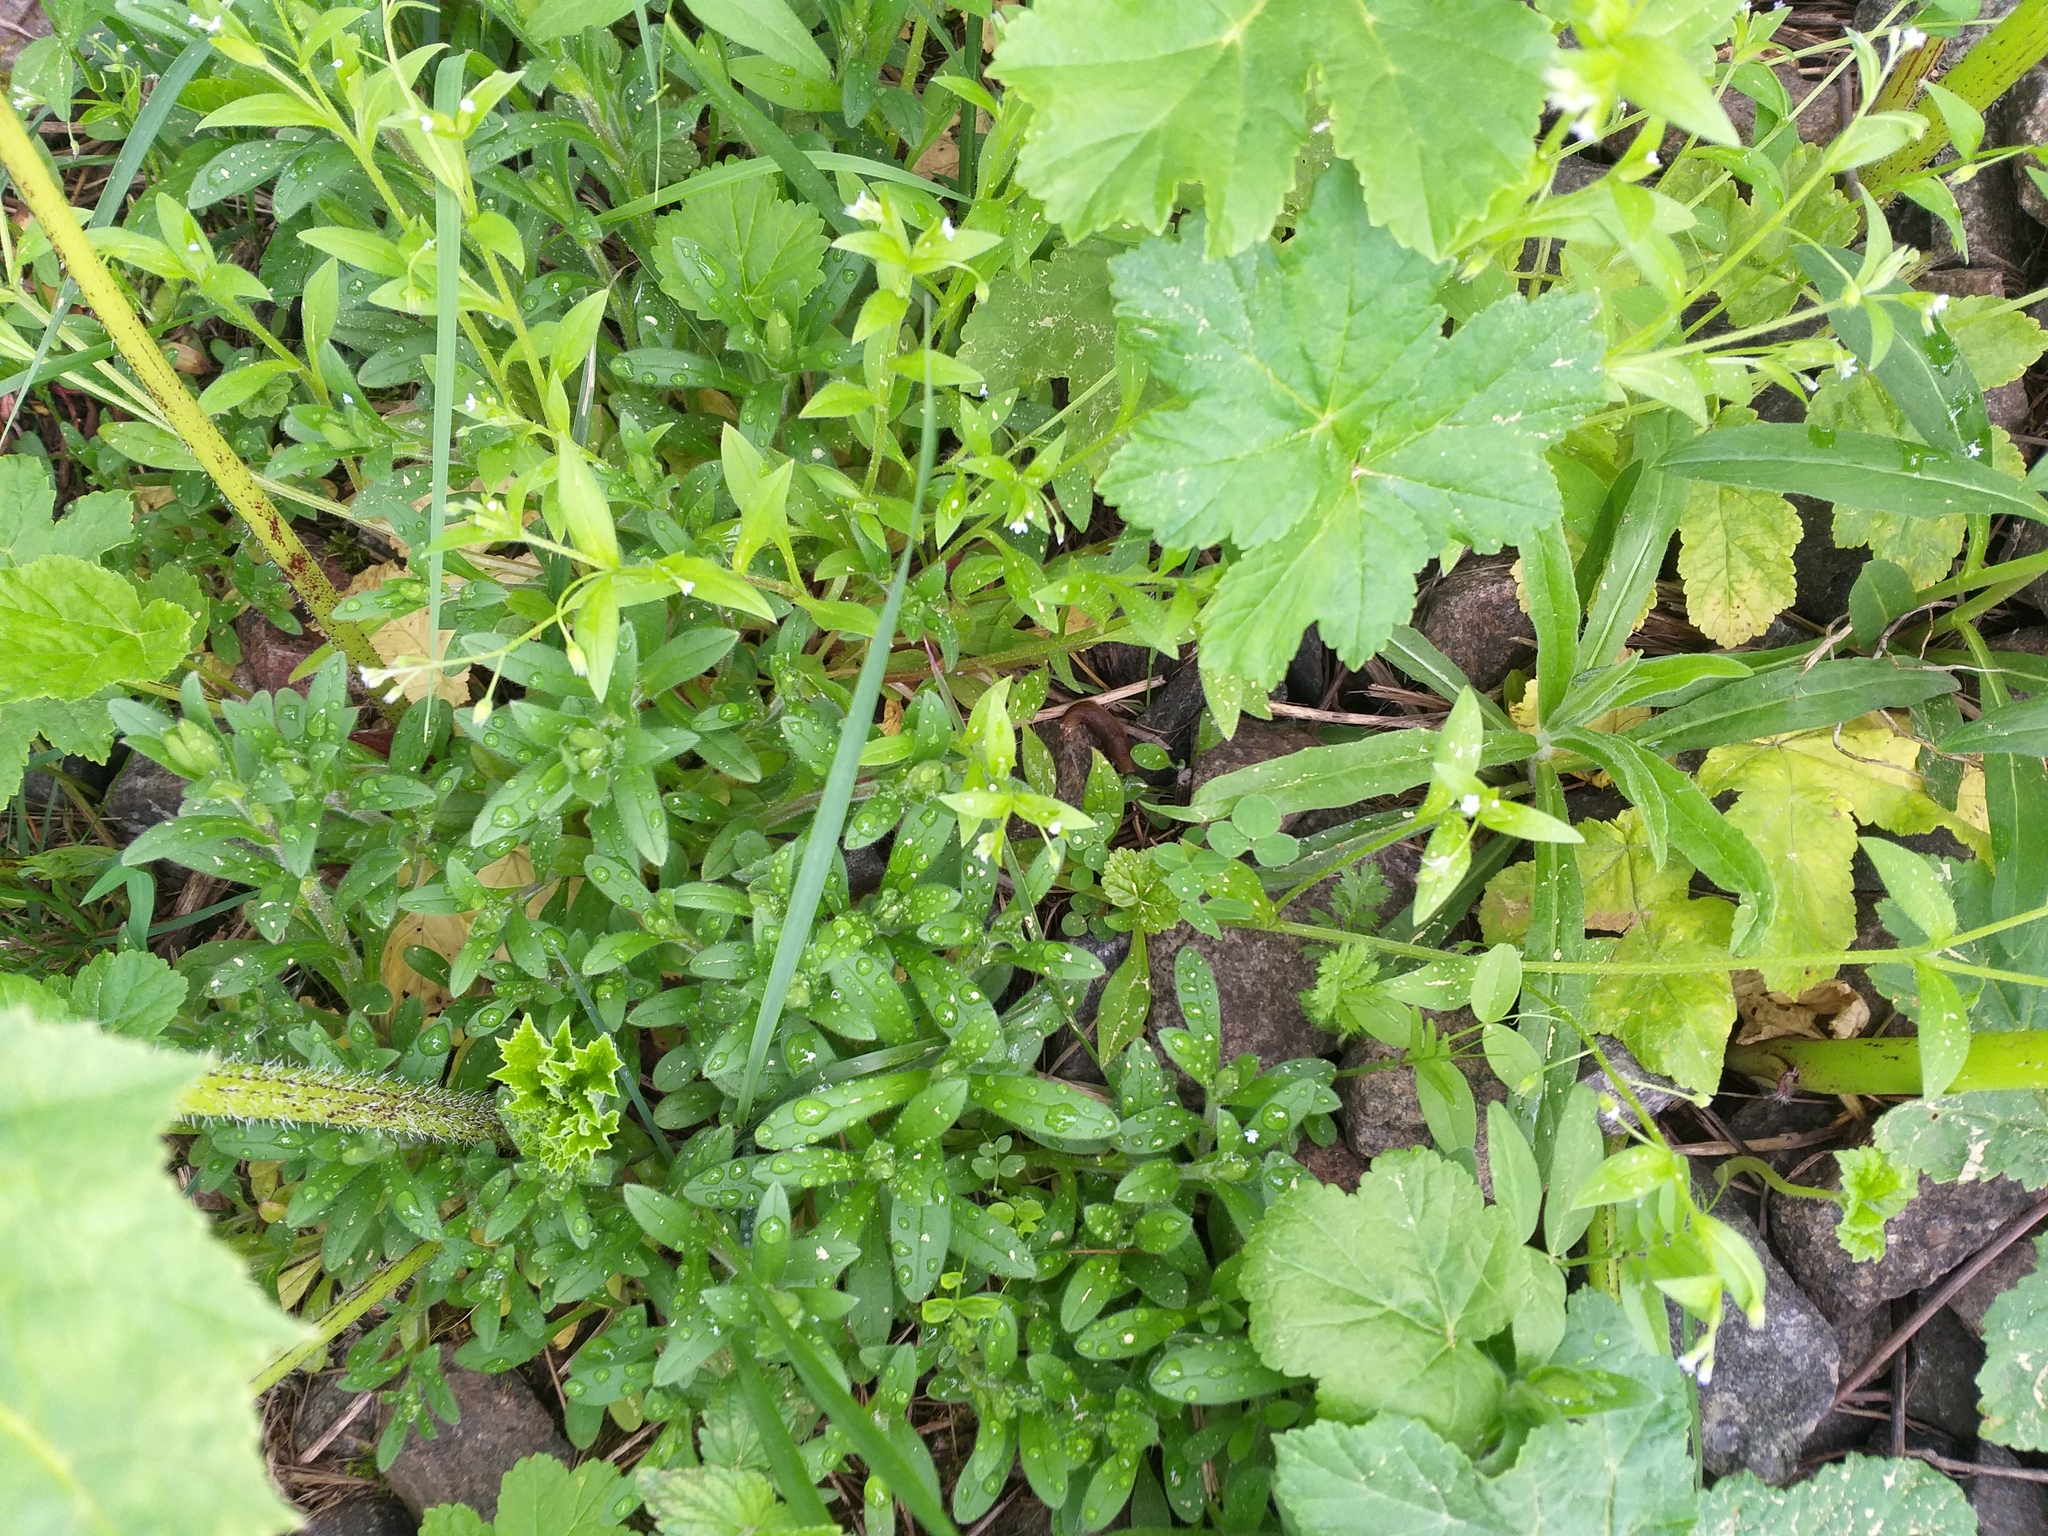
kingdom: Plantae
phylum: Tracheophyta
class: Magnoliopsida
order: Boraginales
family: Boraginaceae
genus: Myosotis
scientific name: Myosotis sparsiflora
